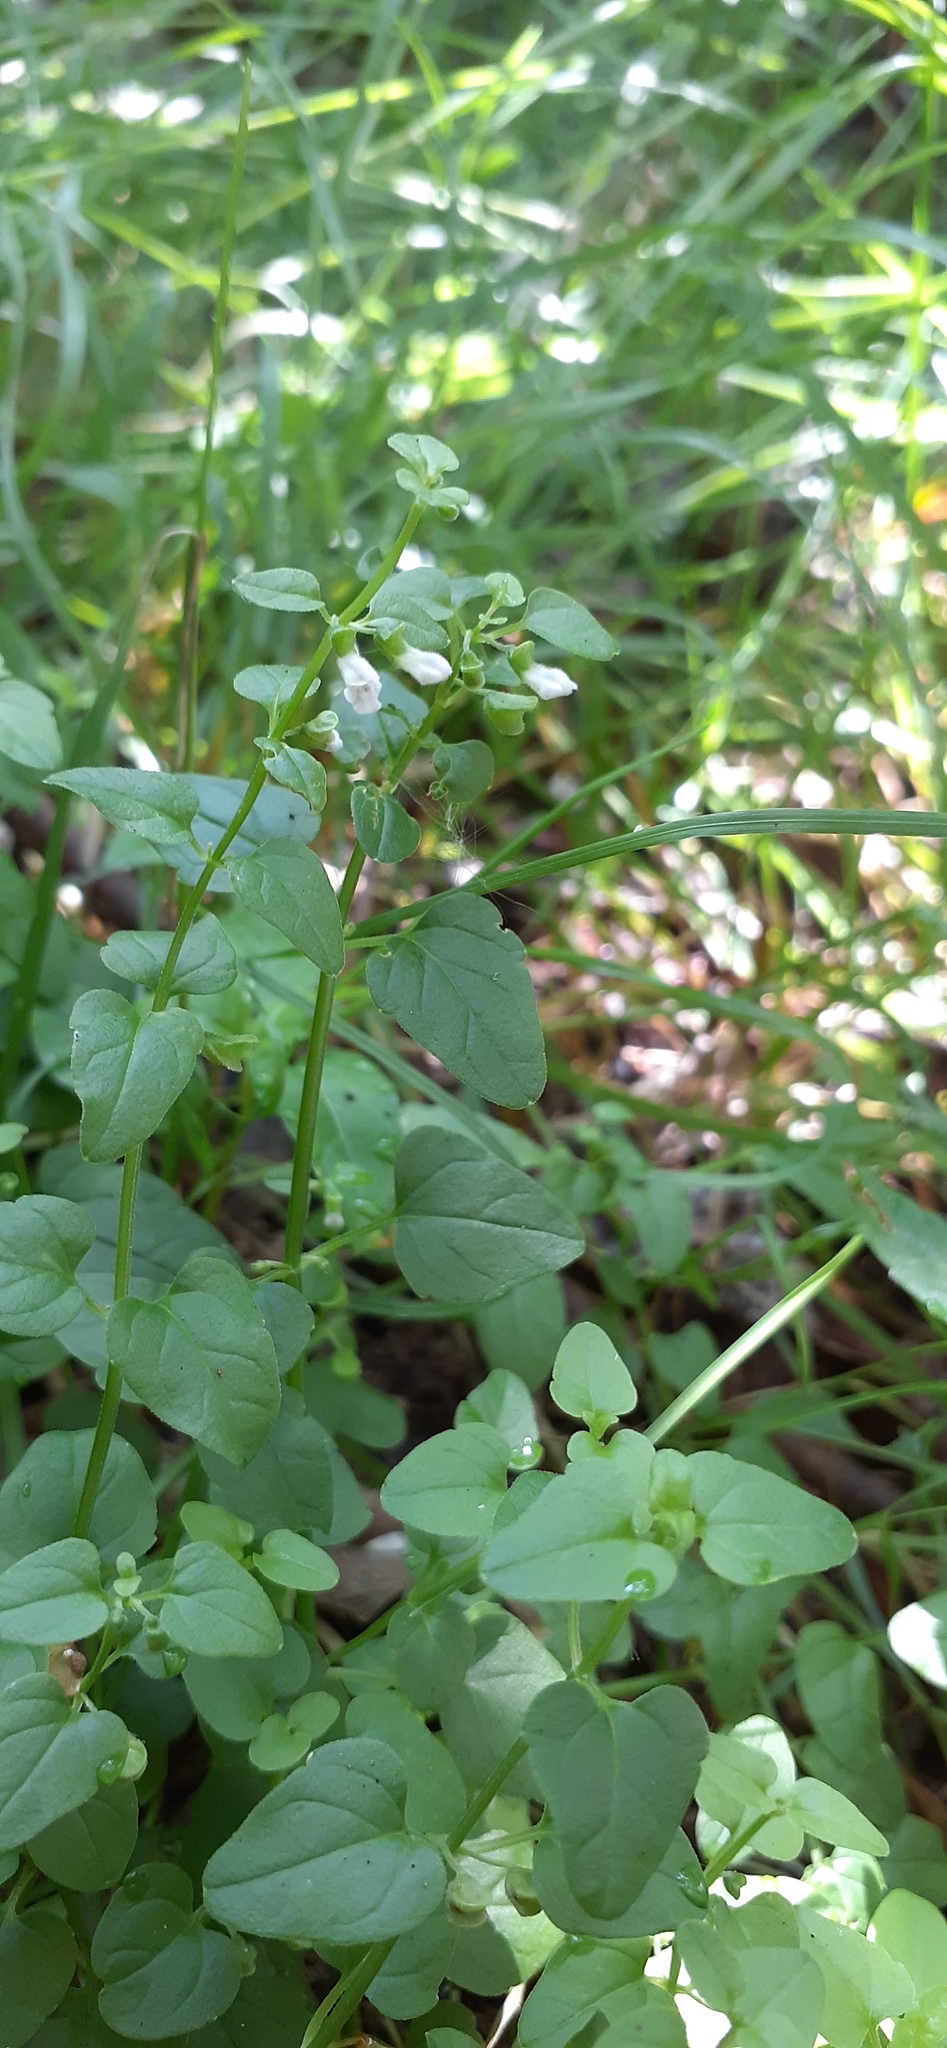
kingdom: Plantae
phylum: Tracheophyta
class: Magnoliopsida
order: Lamiales
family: Lamiaceae
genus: Scutellaria
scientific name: Scutellaria dependens
